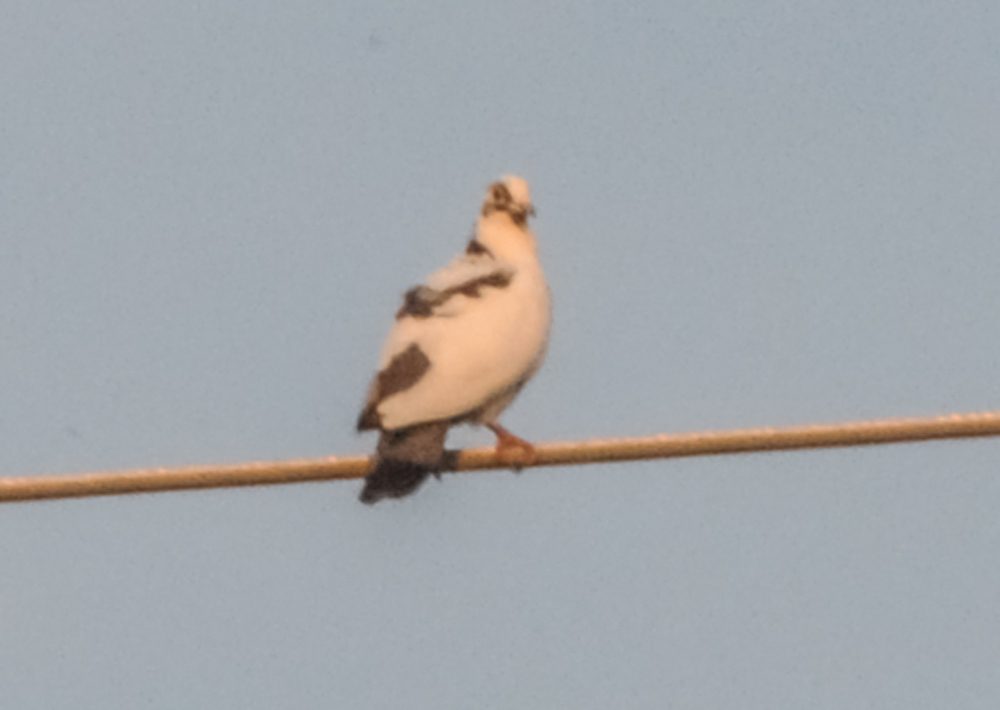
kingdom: Animalia
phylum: Chordata
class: Aves
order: Columbiformes
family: Columbidae
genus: Columba
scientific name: Columba livia
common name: Rock pigeon
